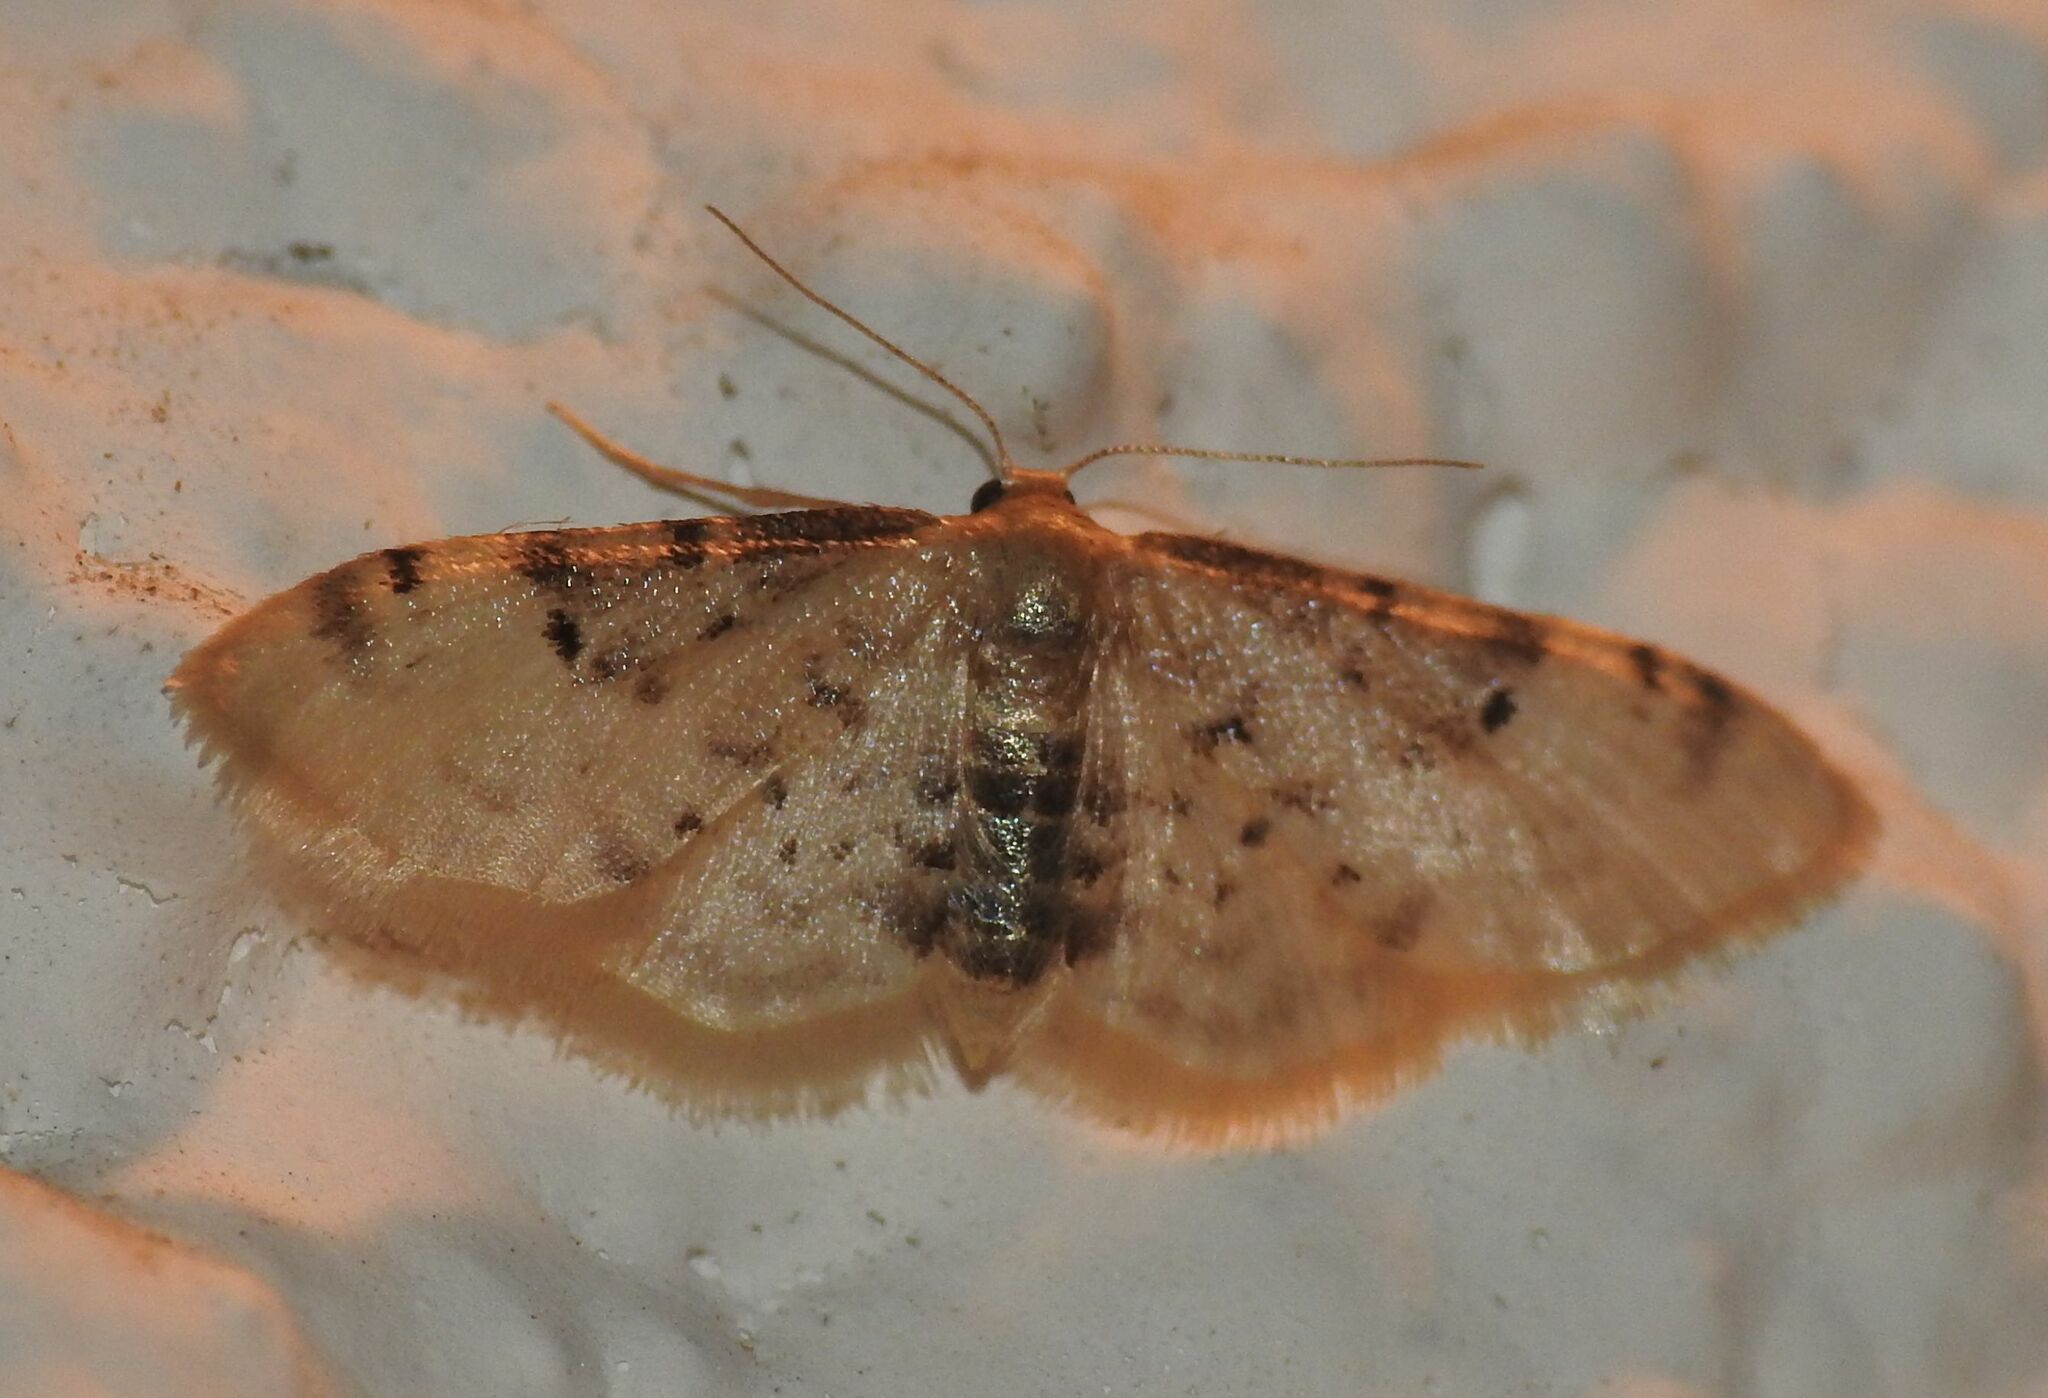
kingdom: Animalia
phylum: Arthropoda
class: Insecta
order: Lepidoptera
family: Geometridae
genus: Idaea
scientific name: Idaea filicata
